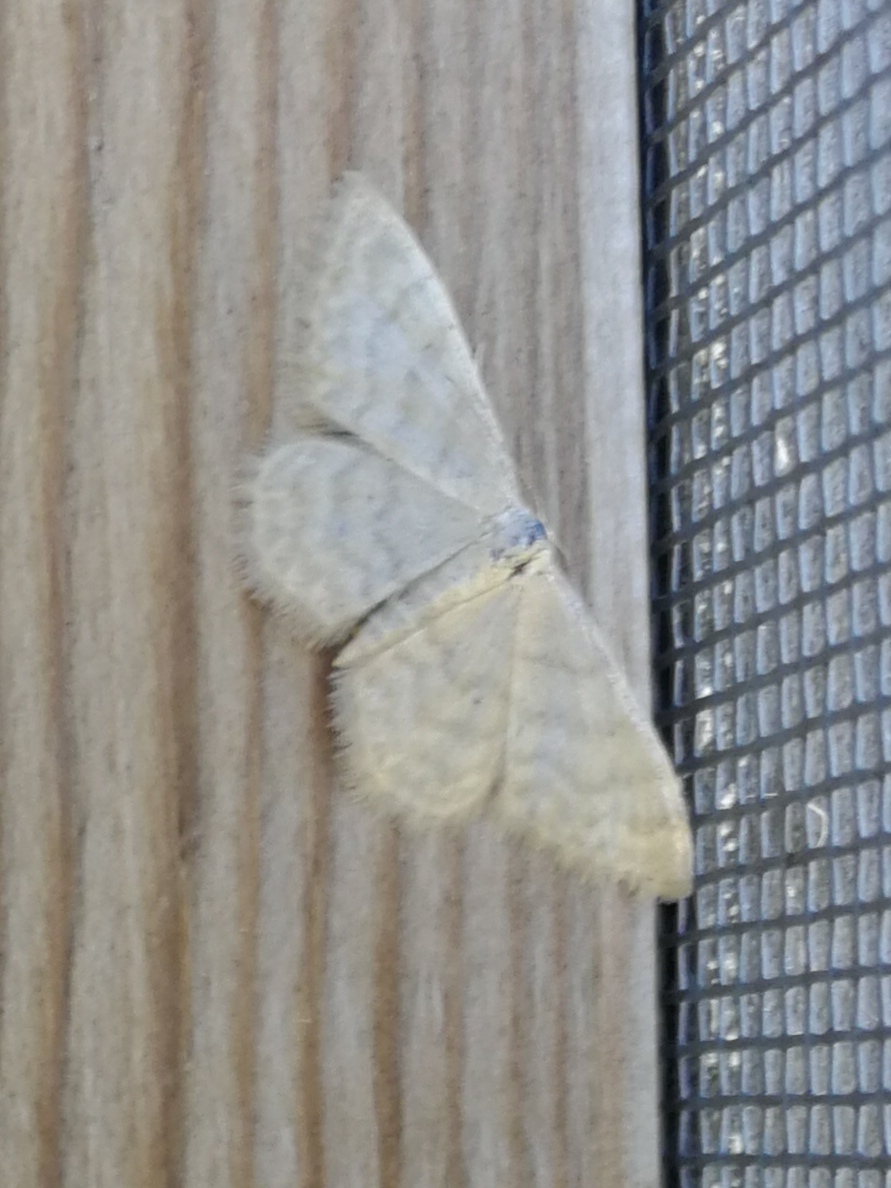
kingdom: Animalia
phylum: Arthropoda
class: Insecta
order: Lepidoptera
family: Geometridae
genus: Idaea
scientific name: Idaea dilutaria
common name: Silky wave
